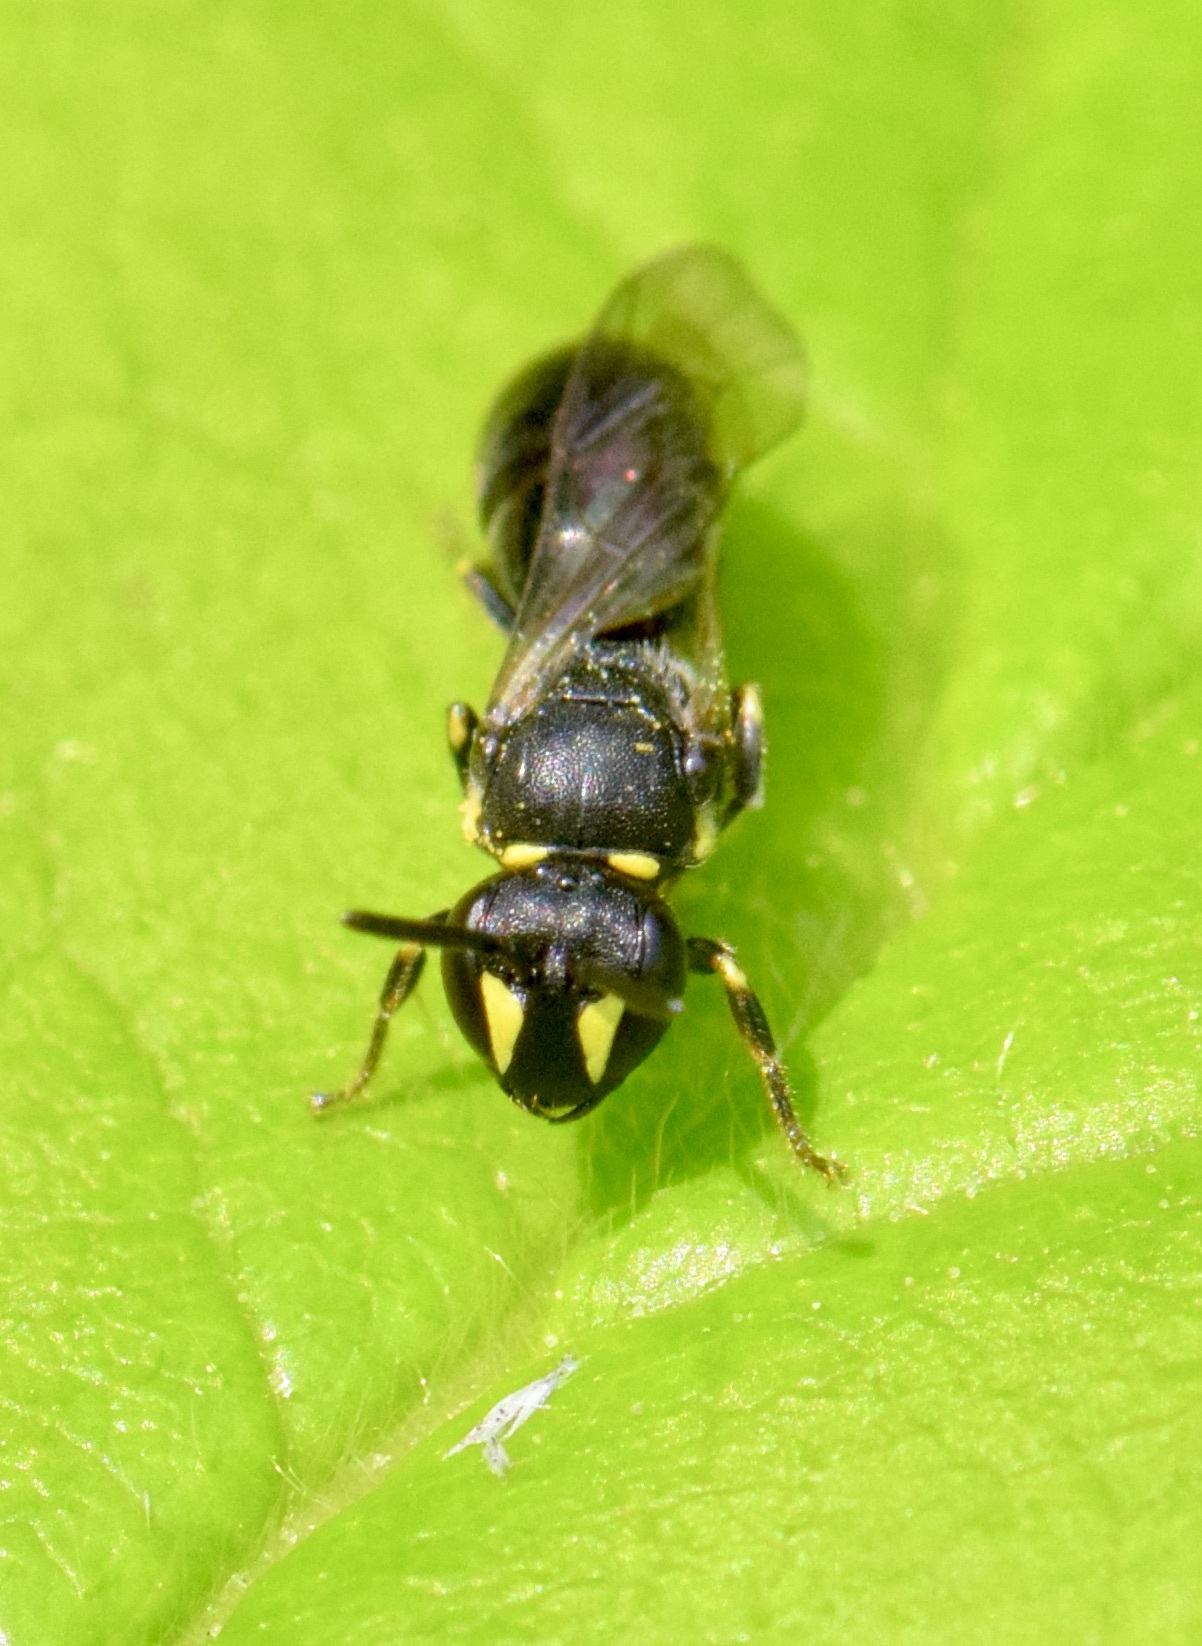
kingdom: Animalia
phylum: Arthropoda
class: Insecta
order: Hymenoptera
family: Colletidae
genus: Hylaeus
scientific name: Hylaeus modestus
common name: Yellow-faced bee
